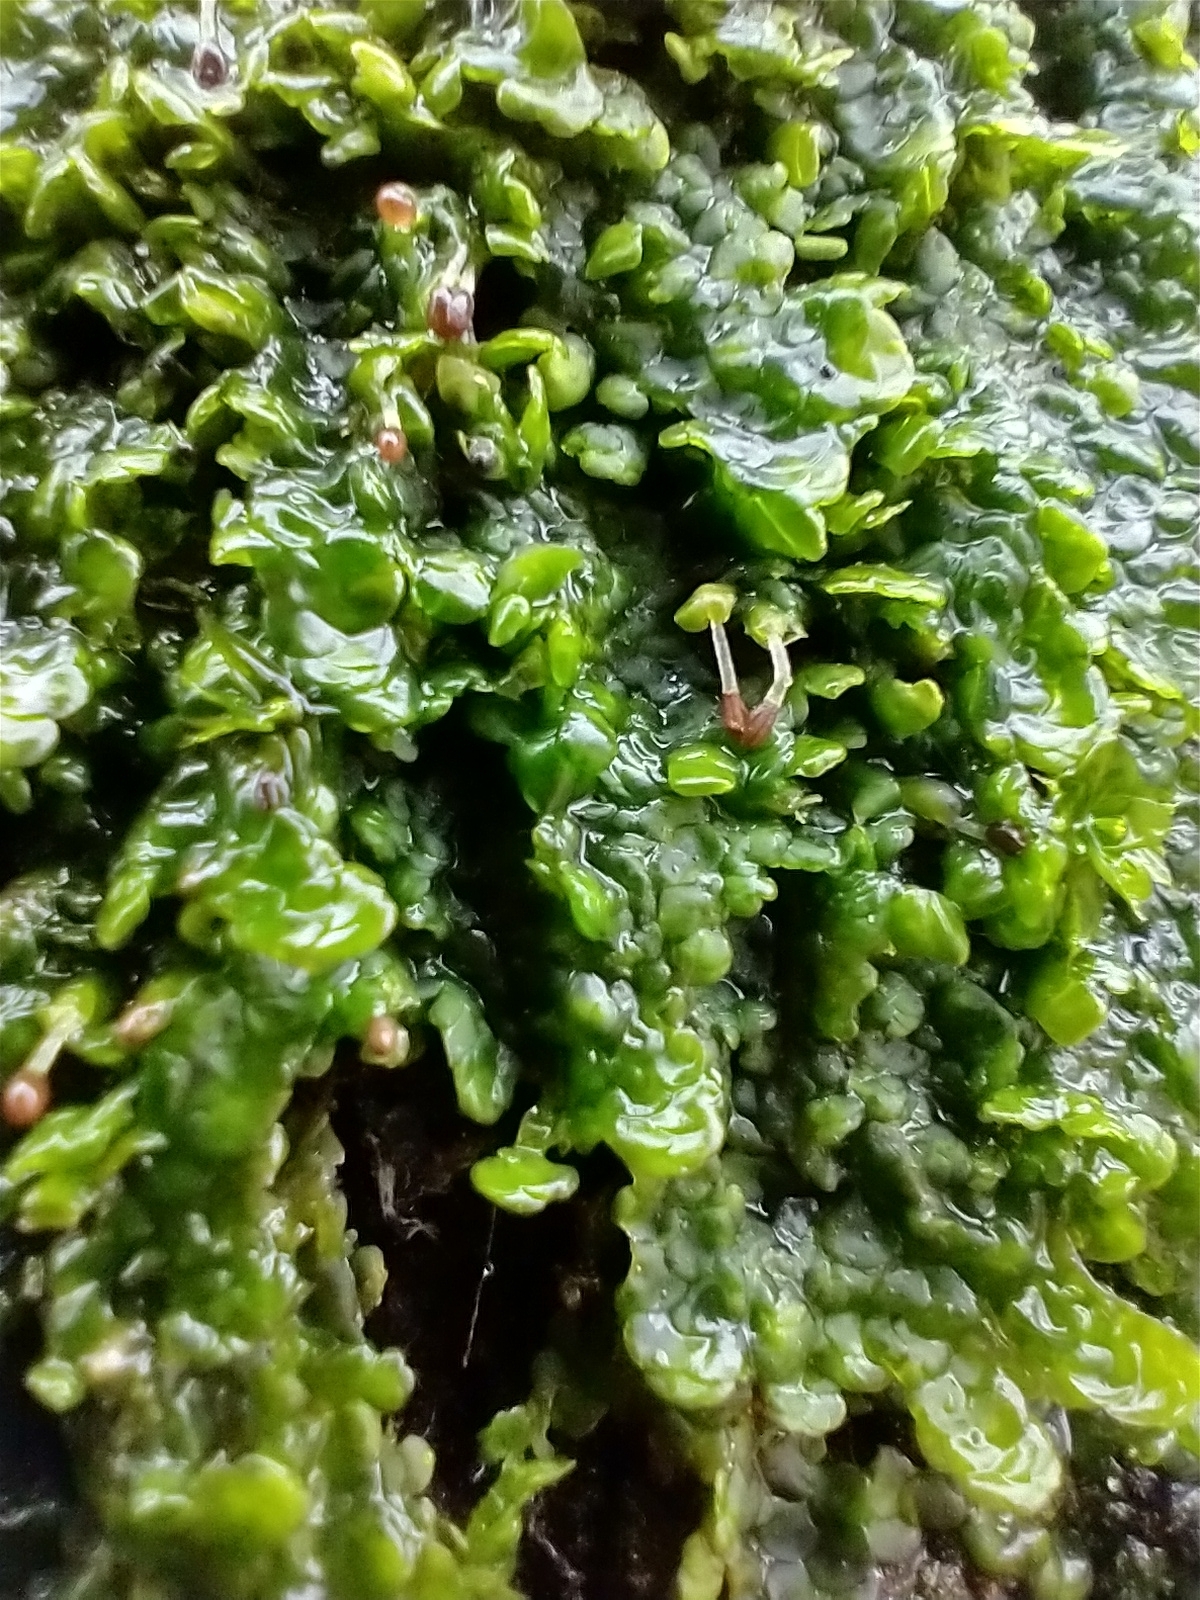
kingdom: Plantae
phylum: Marchantiophyta
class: Jungermanniopsida
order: Porellales
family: Radulaceae
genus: Radula
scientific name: Radula complanata
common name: Flat-leaved scalewort
